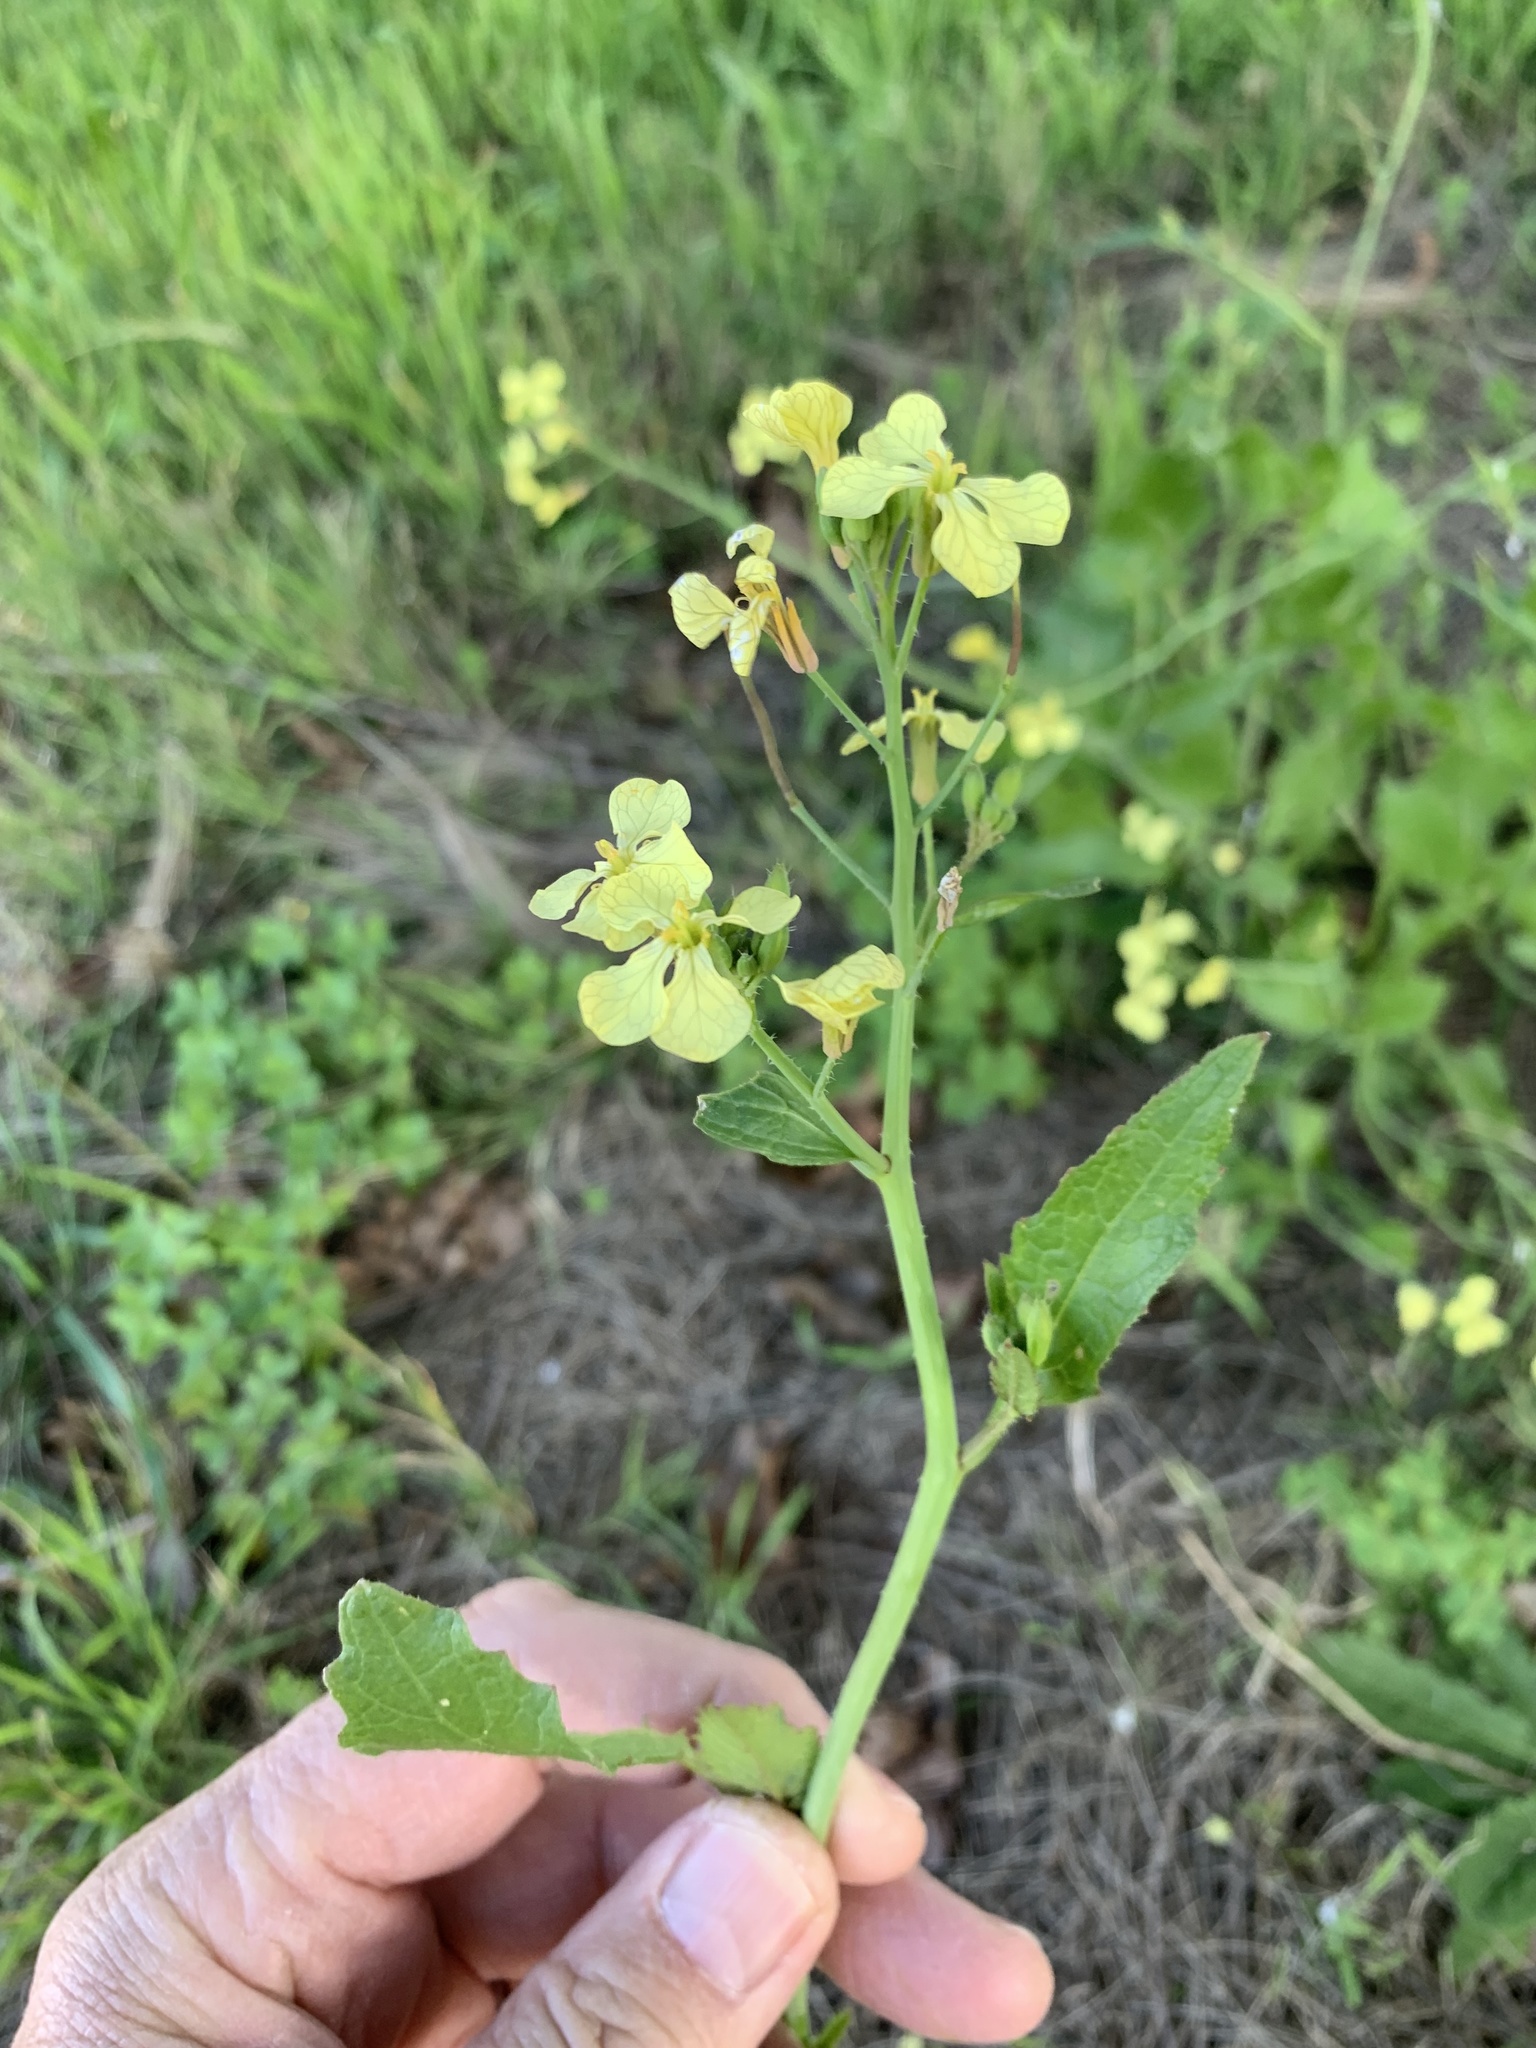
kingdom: Plantae
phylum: Tracheophyta
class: Magnoliopsida
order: Brassicales
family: Brassicaceae
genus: Raphanus
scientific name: Raphanus raphanistrum
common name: Wild radish
